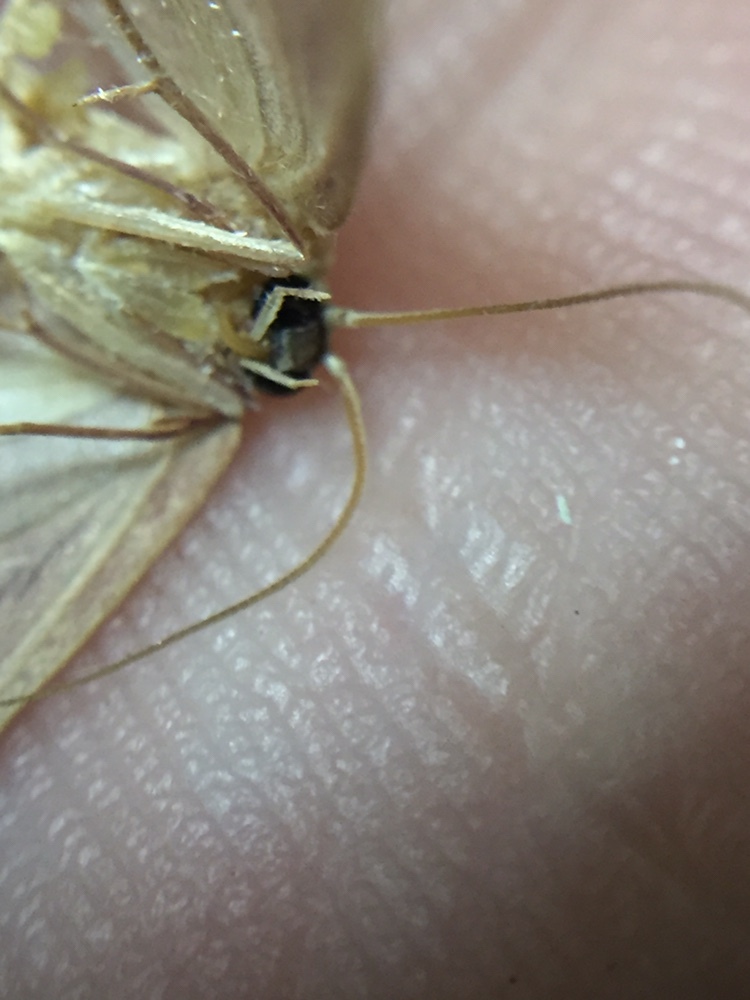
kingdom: Animalia
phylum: Arthropoda
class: Insecta
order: Lepidoptera
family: Geometridae
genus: Cyclophora
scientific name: Cyclophora obstataria
